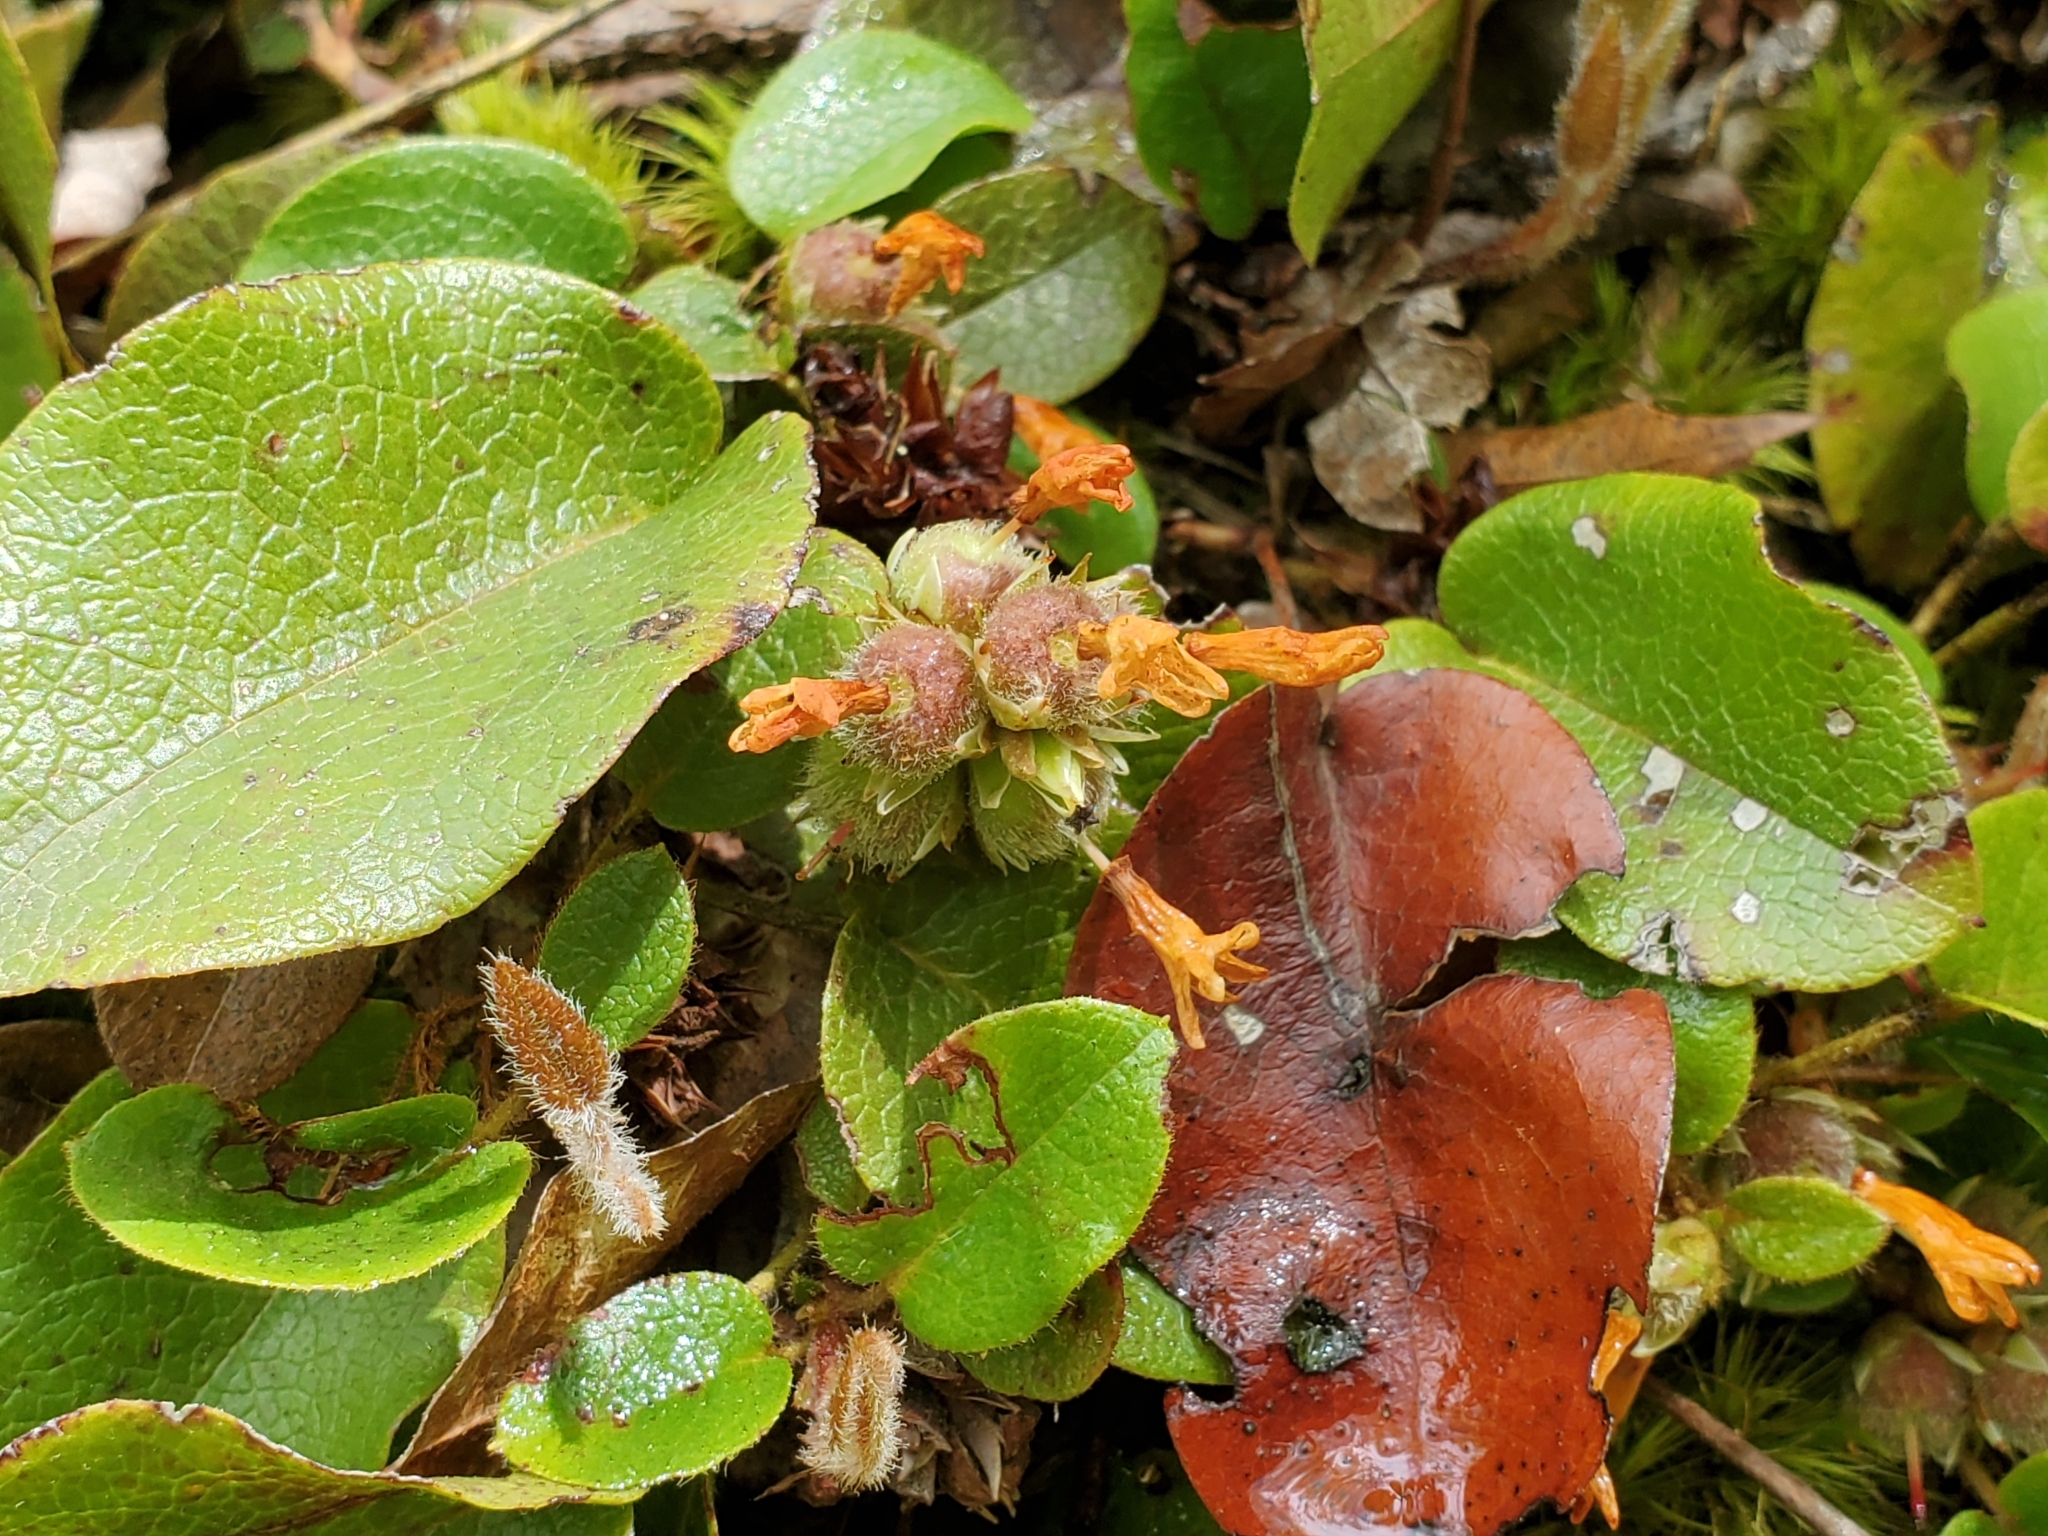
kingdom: Plantae
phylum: Tracheophyta
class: Magnoliopsida
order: Ericales
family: Ericaceae
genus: Epigaea
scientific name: Epigaea repens
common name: Gravelroot
